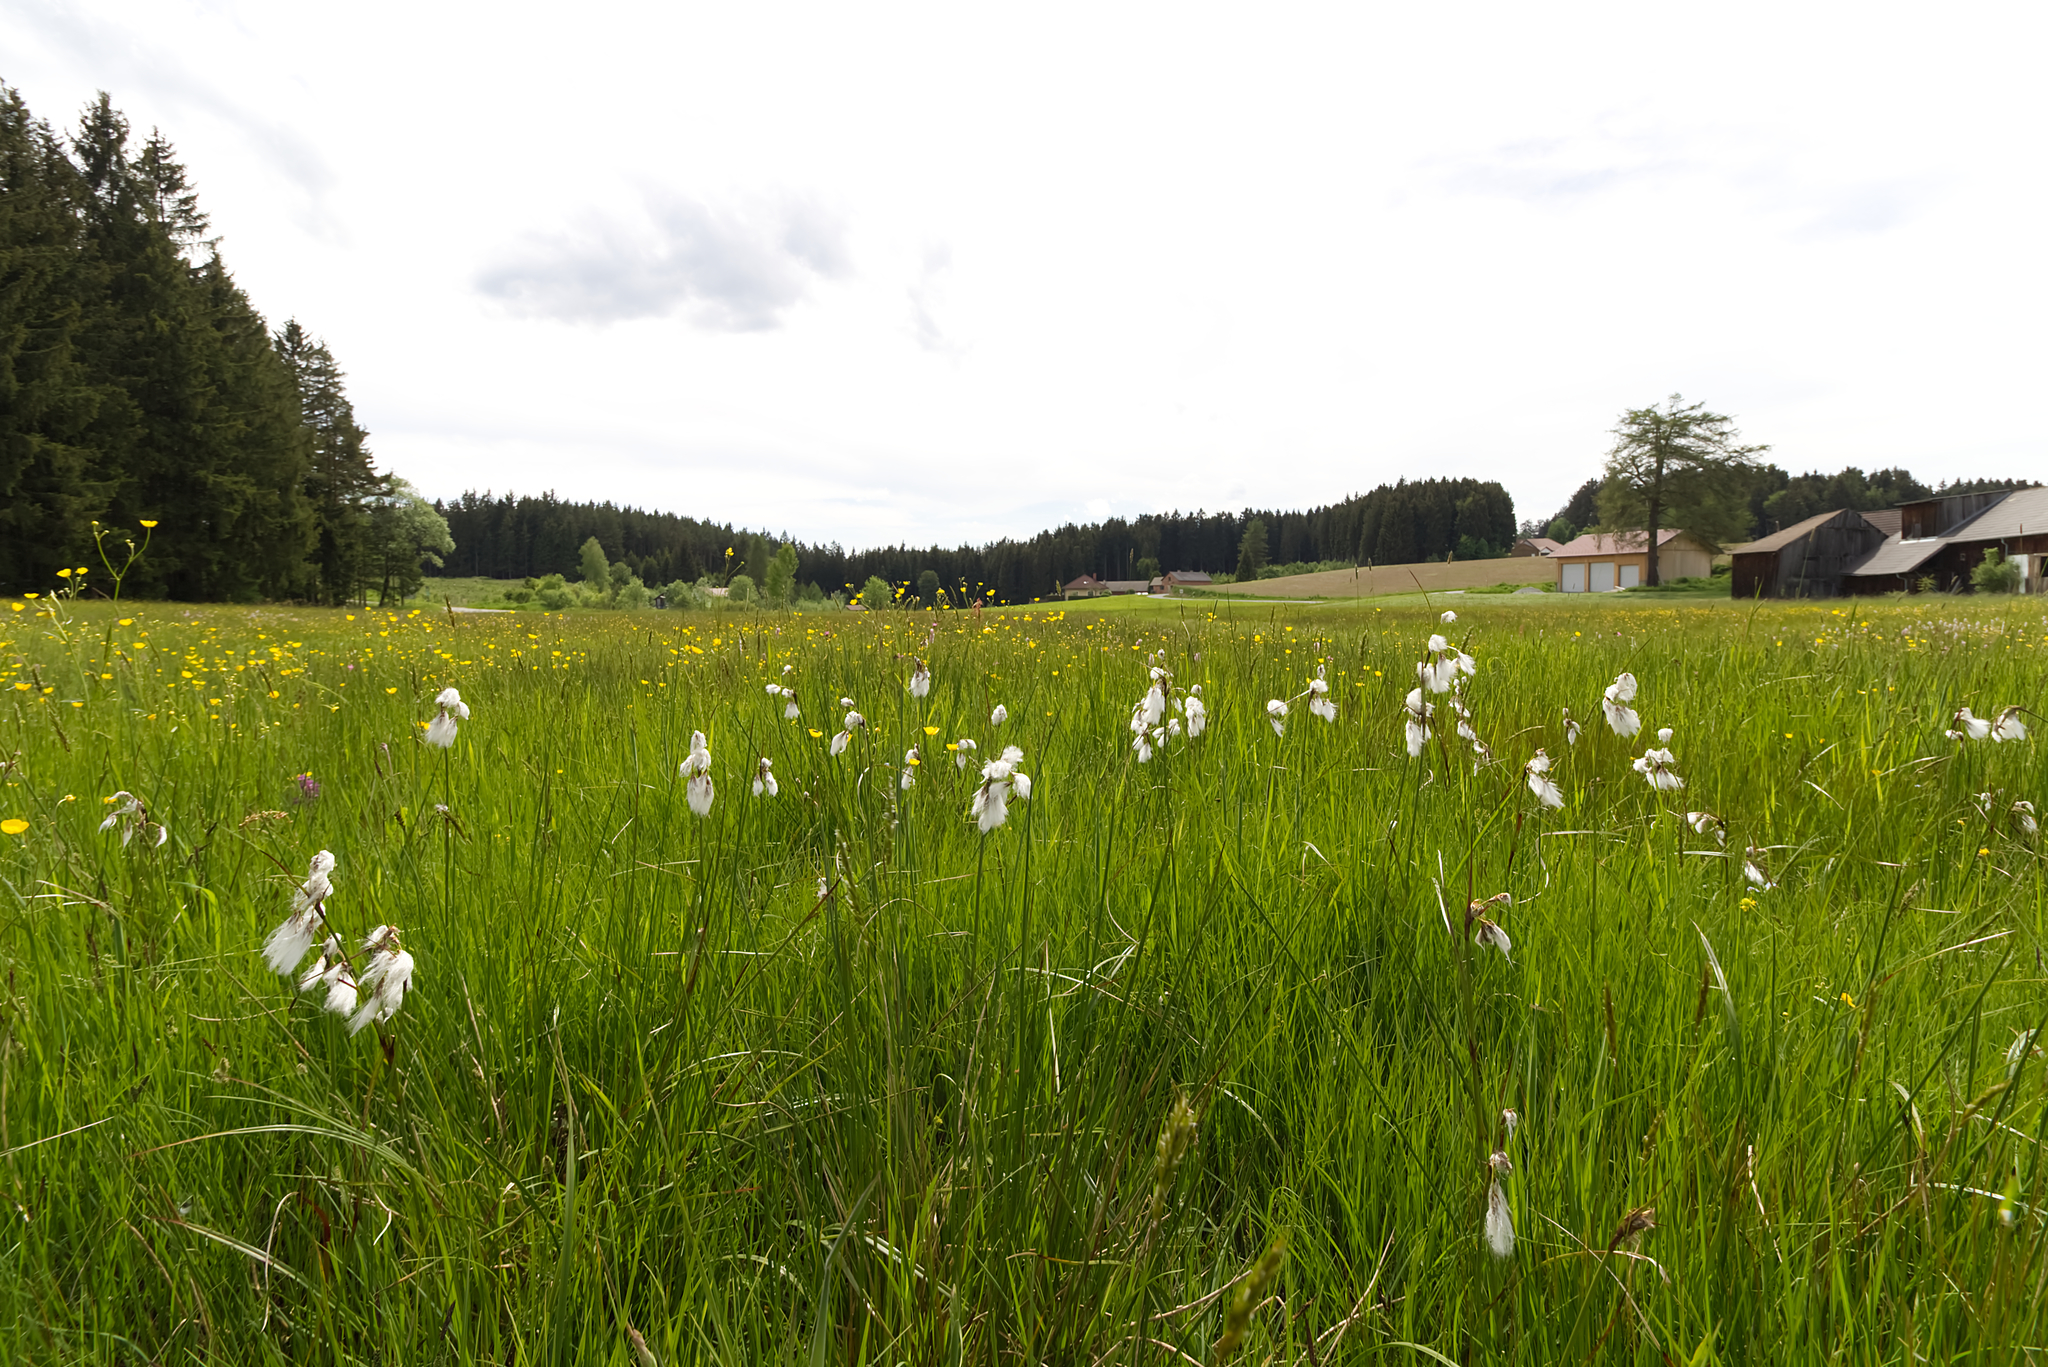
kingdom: Plantae
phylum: Tracheophyta
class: Liliopsida
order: Poales
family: Cyperaceae
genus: Eriophorum
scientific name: Eriophorum angustifolium
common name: Common cottongrass
